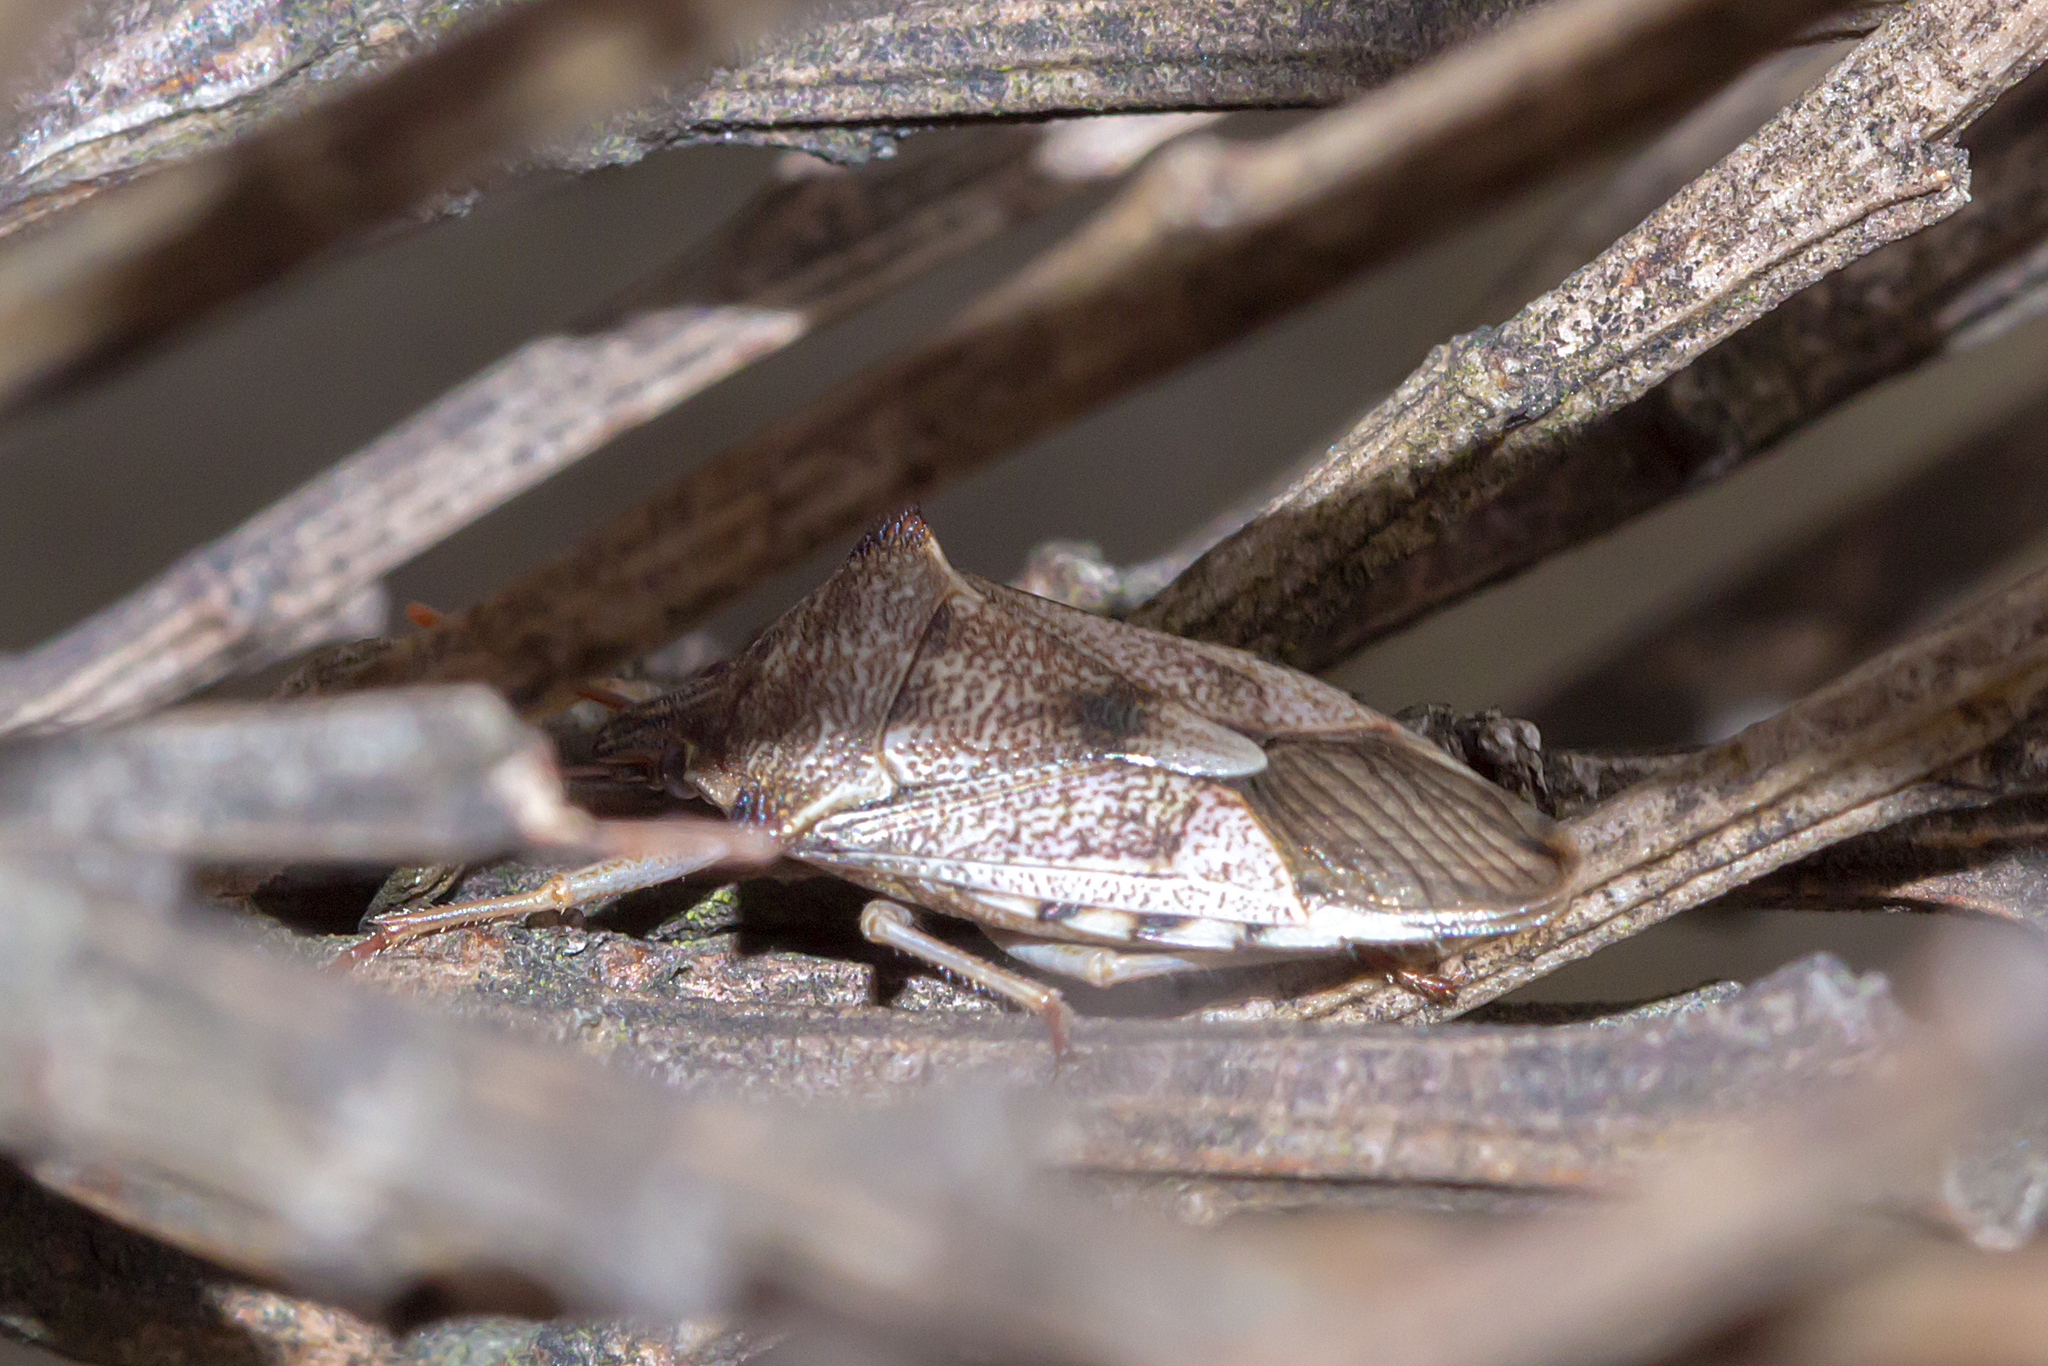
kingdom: Animalia
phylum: Arthropoda
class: Insecta
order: Hemiptera
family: Pentatomidae
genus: Oechalia
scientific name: Oechalia schellenbergii
